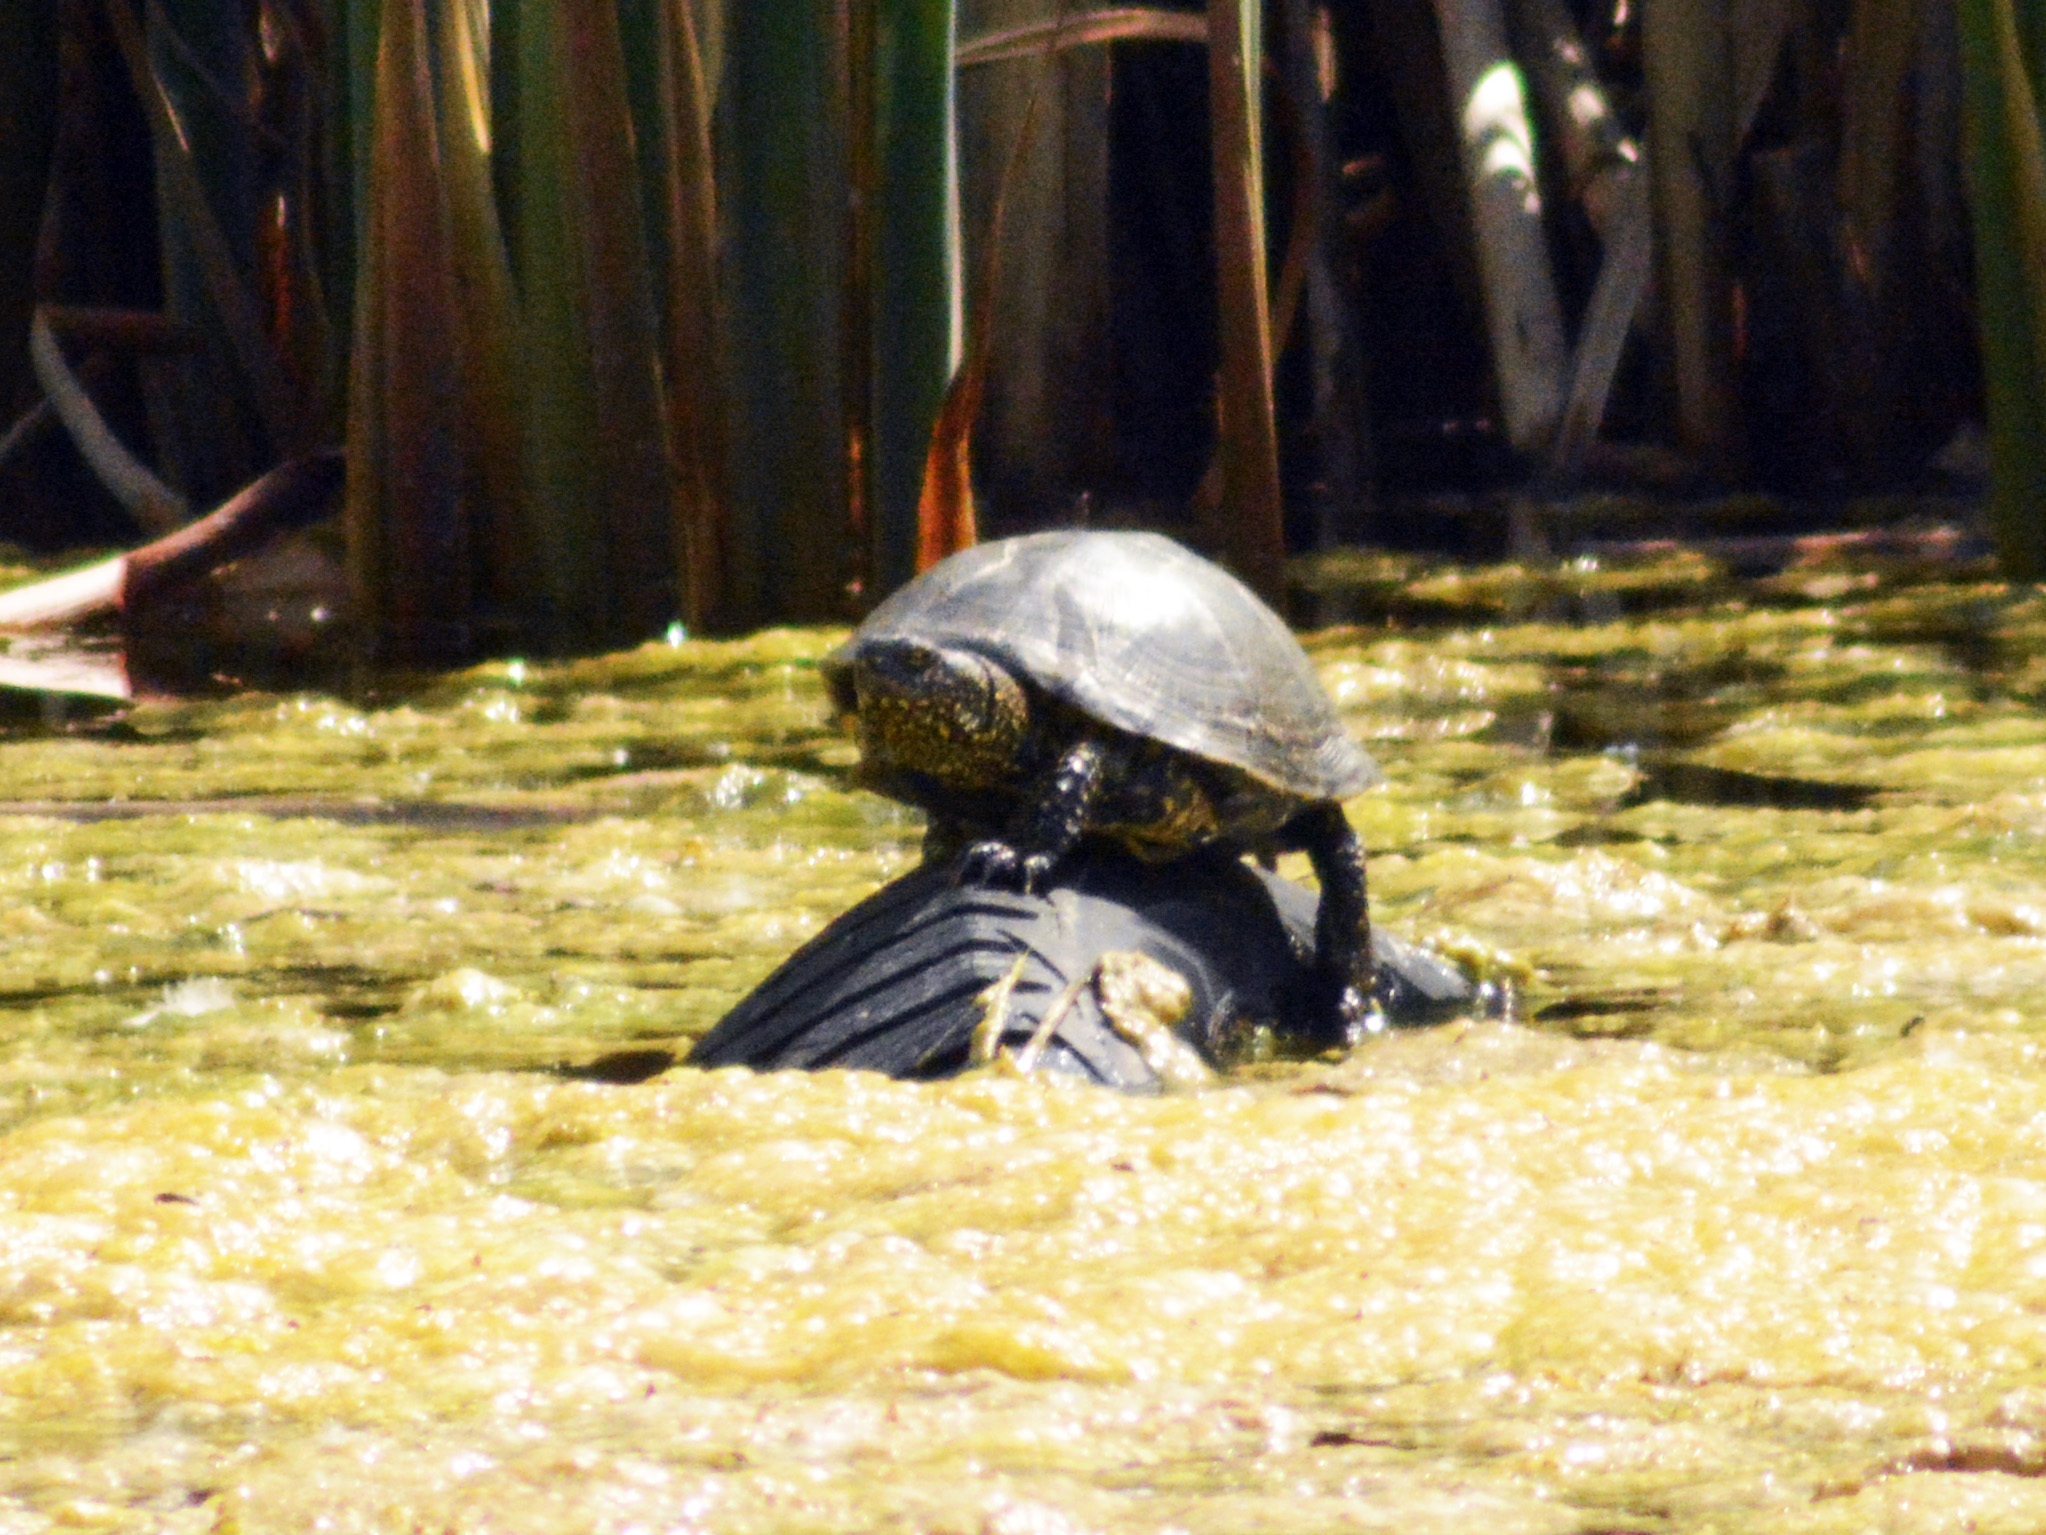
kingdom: Animalia
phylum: Chordata
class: Testudines
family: Emydidae
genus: Emys
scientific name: Emys orbicularis
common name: European pond turtle
